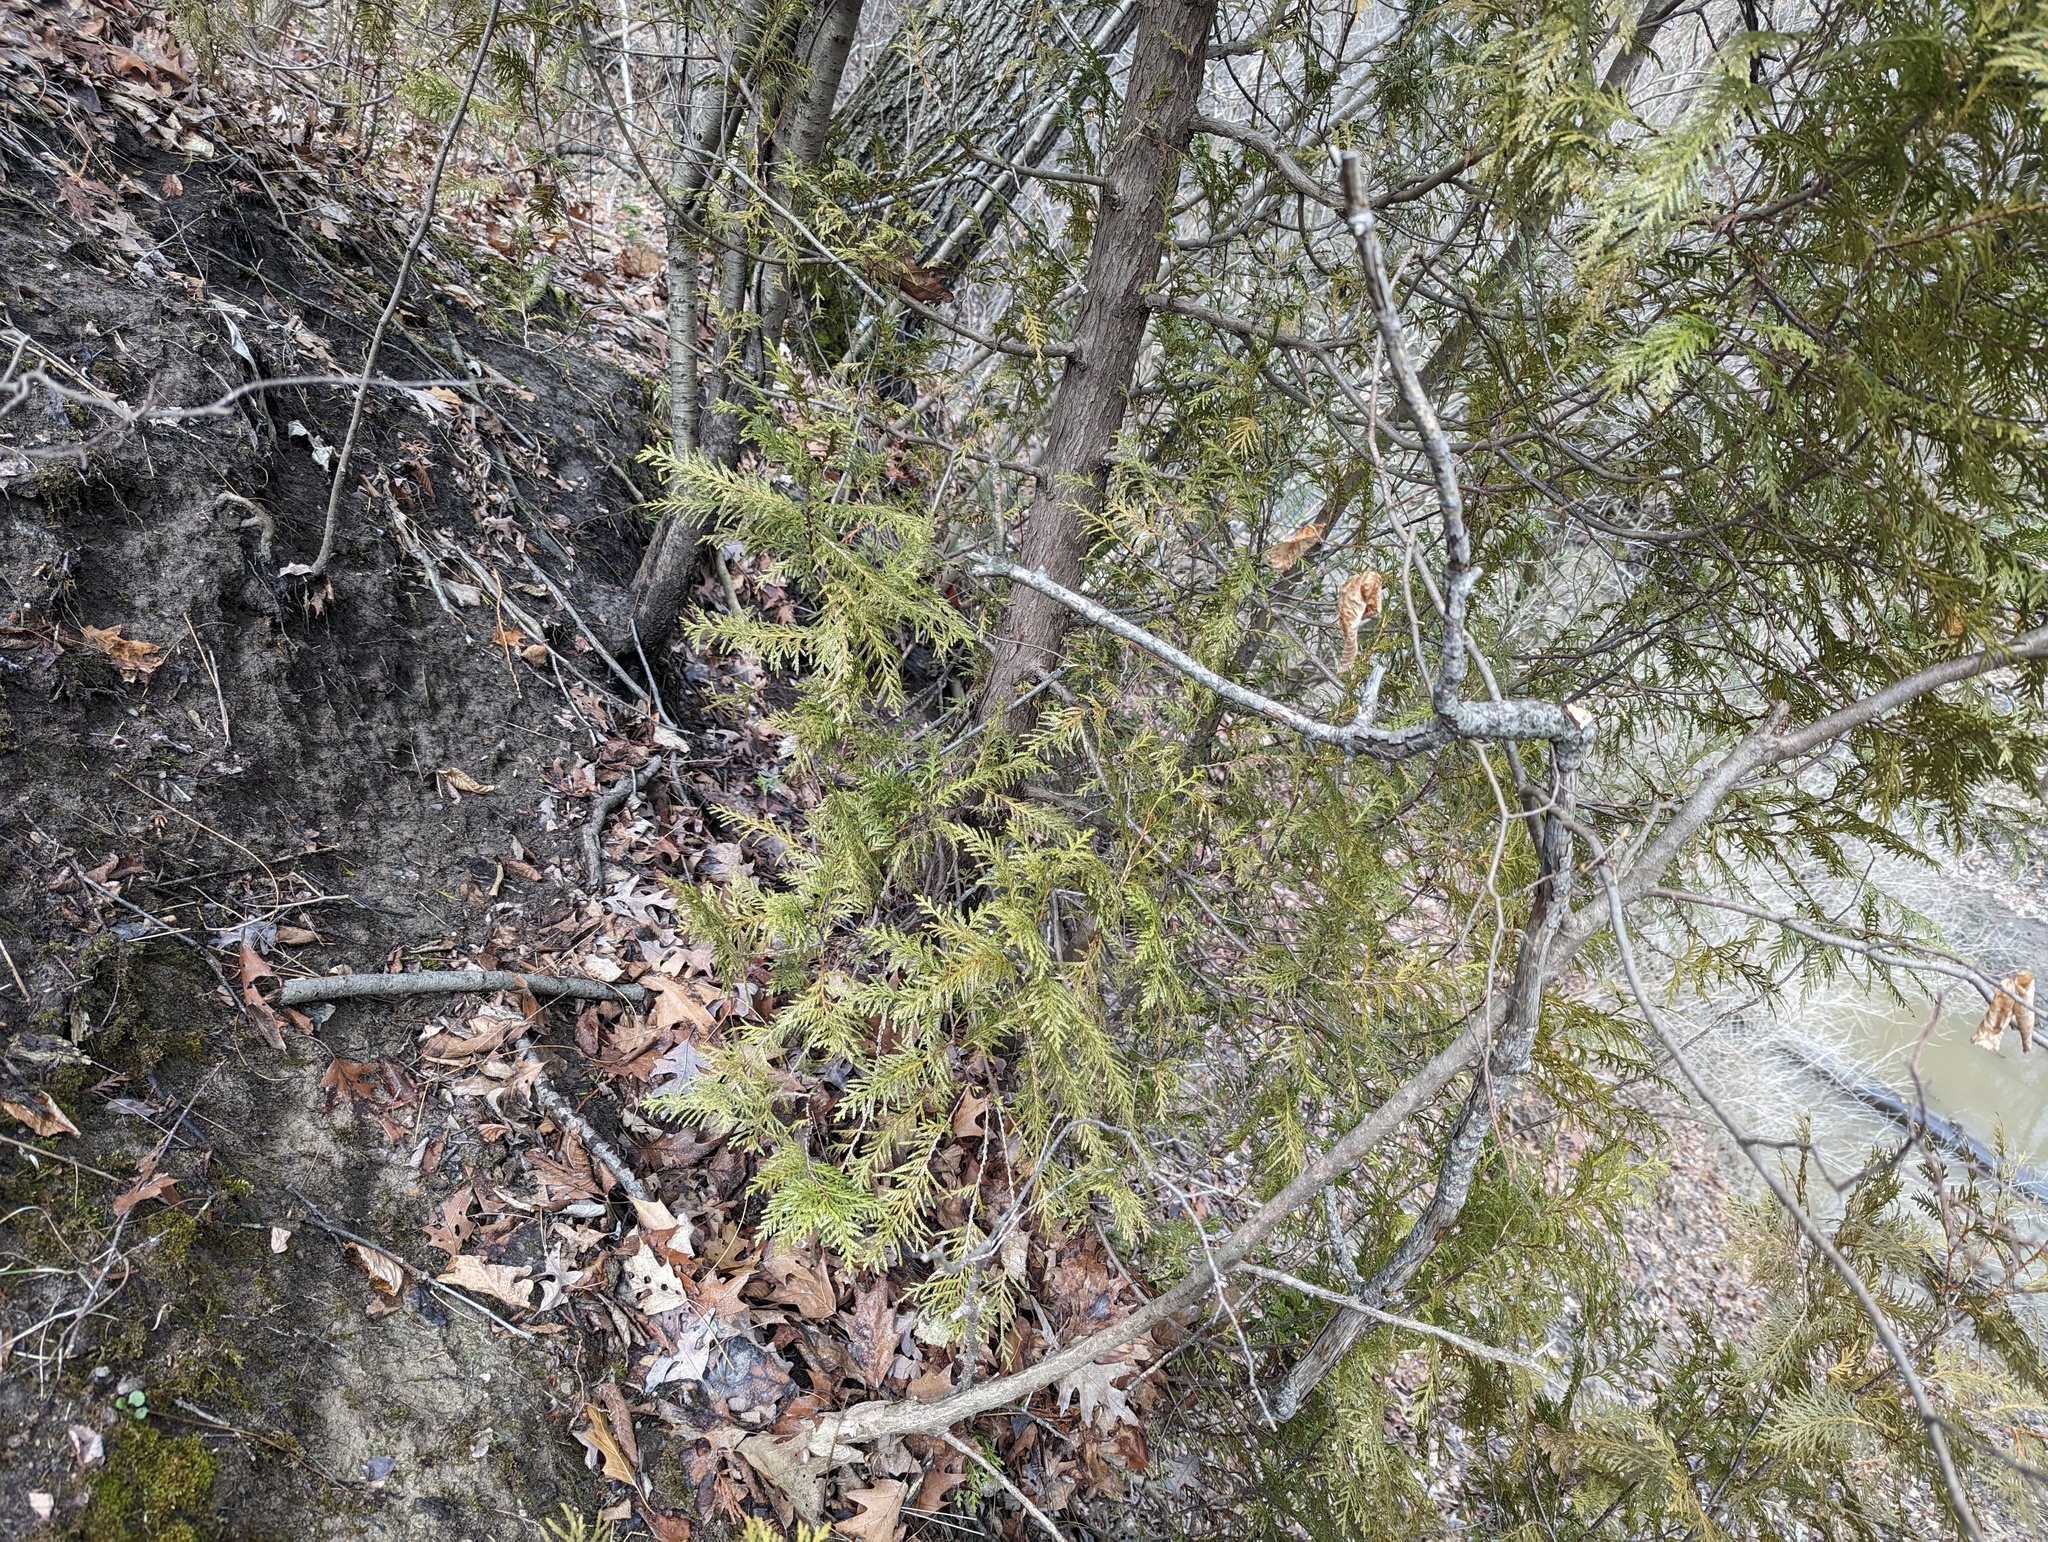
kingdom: Plantae
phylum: Tracheophyta
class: Pinopsida
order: Pinales
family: Cupressaceae
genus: Thuja
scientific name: Thuja occidentalis
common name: Northern white-cedar
